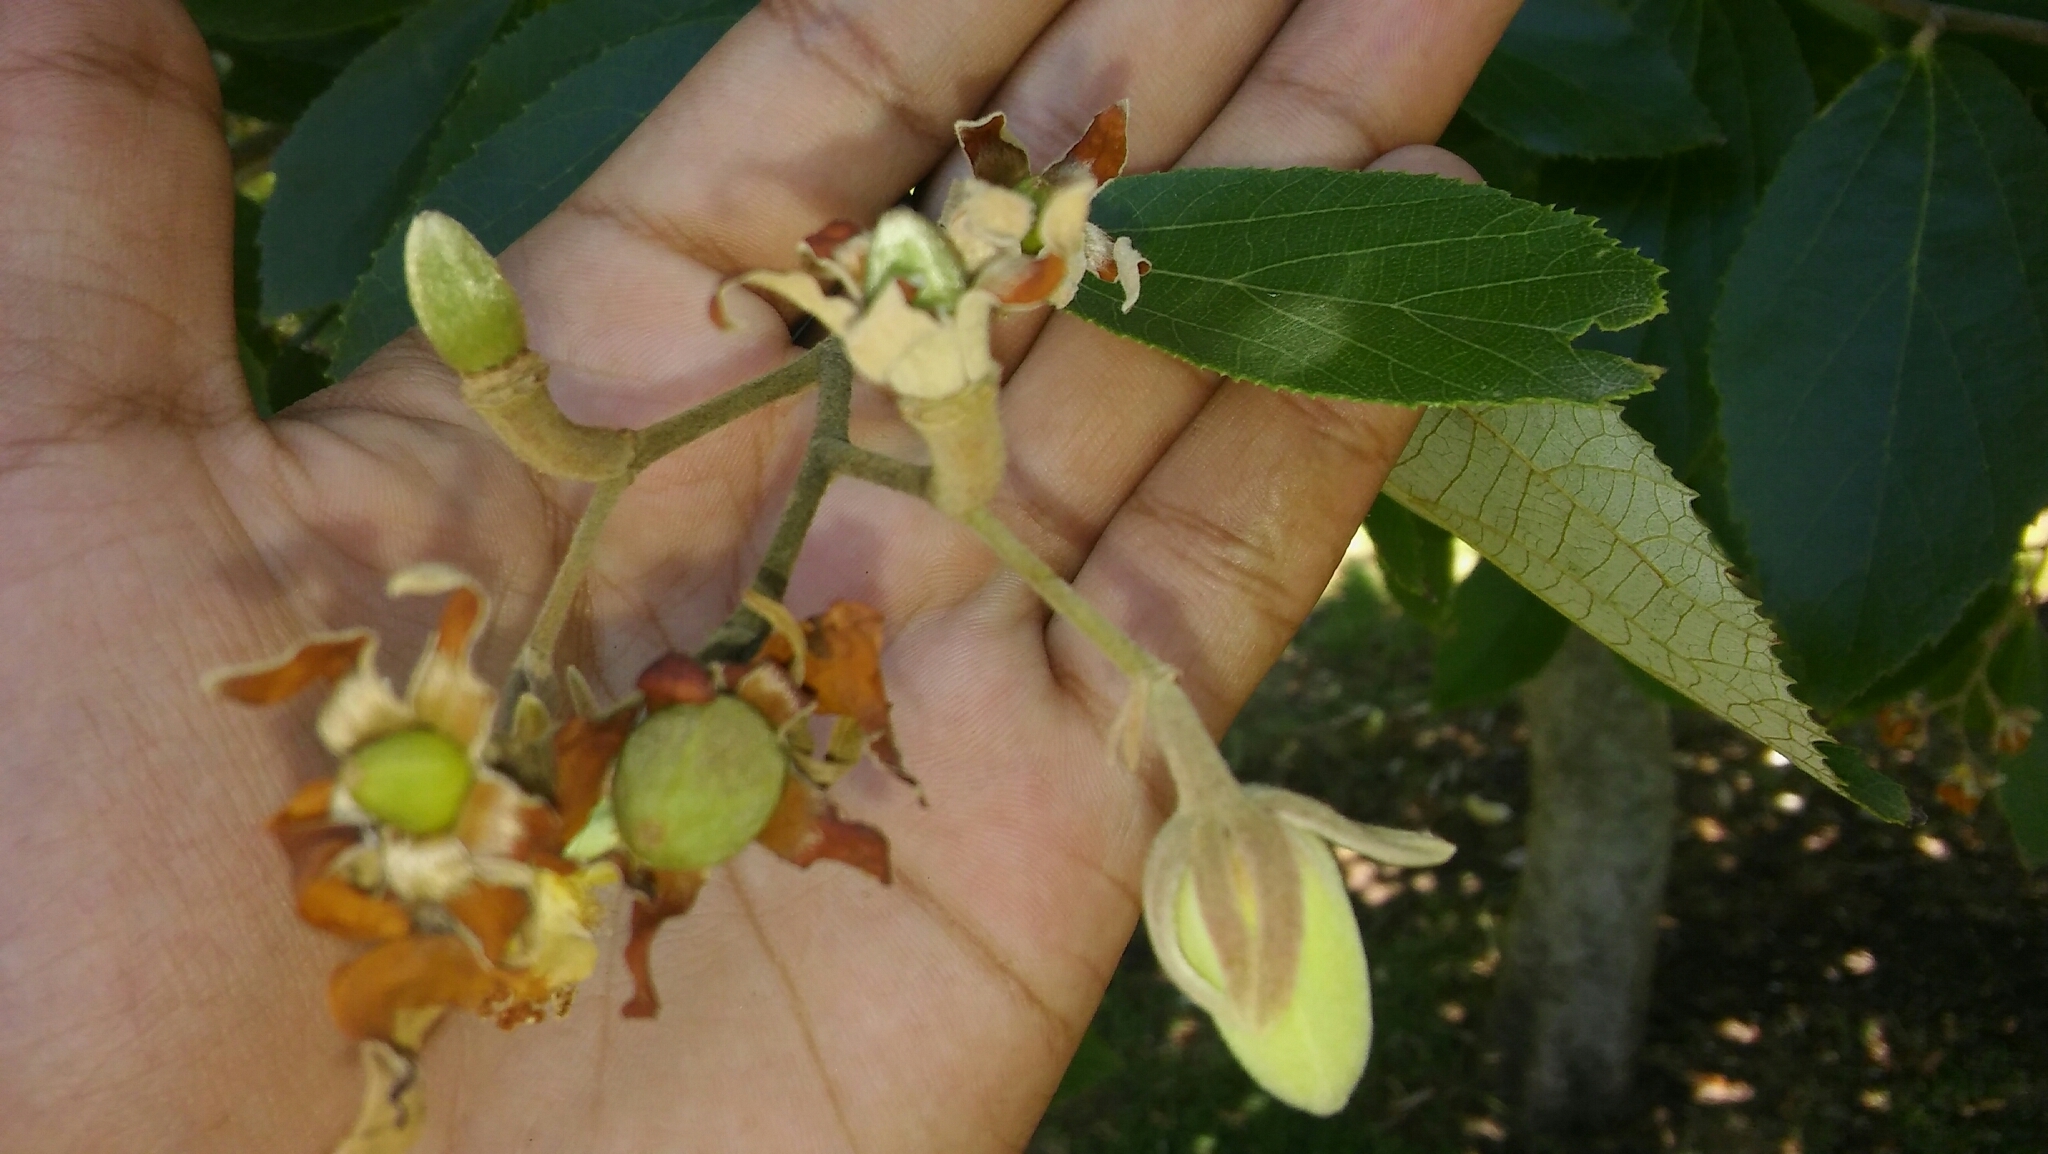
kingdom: Plantae
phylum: Tracheophyta
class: Magnoliopsida
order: Malvales
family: Malvaceae
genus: Luehea
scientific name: Luehea divaricata
